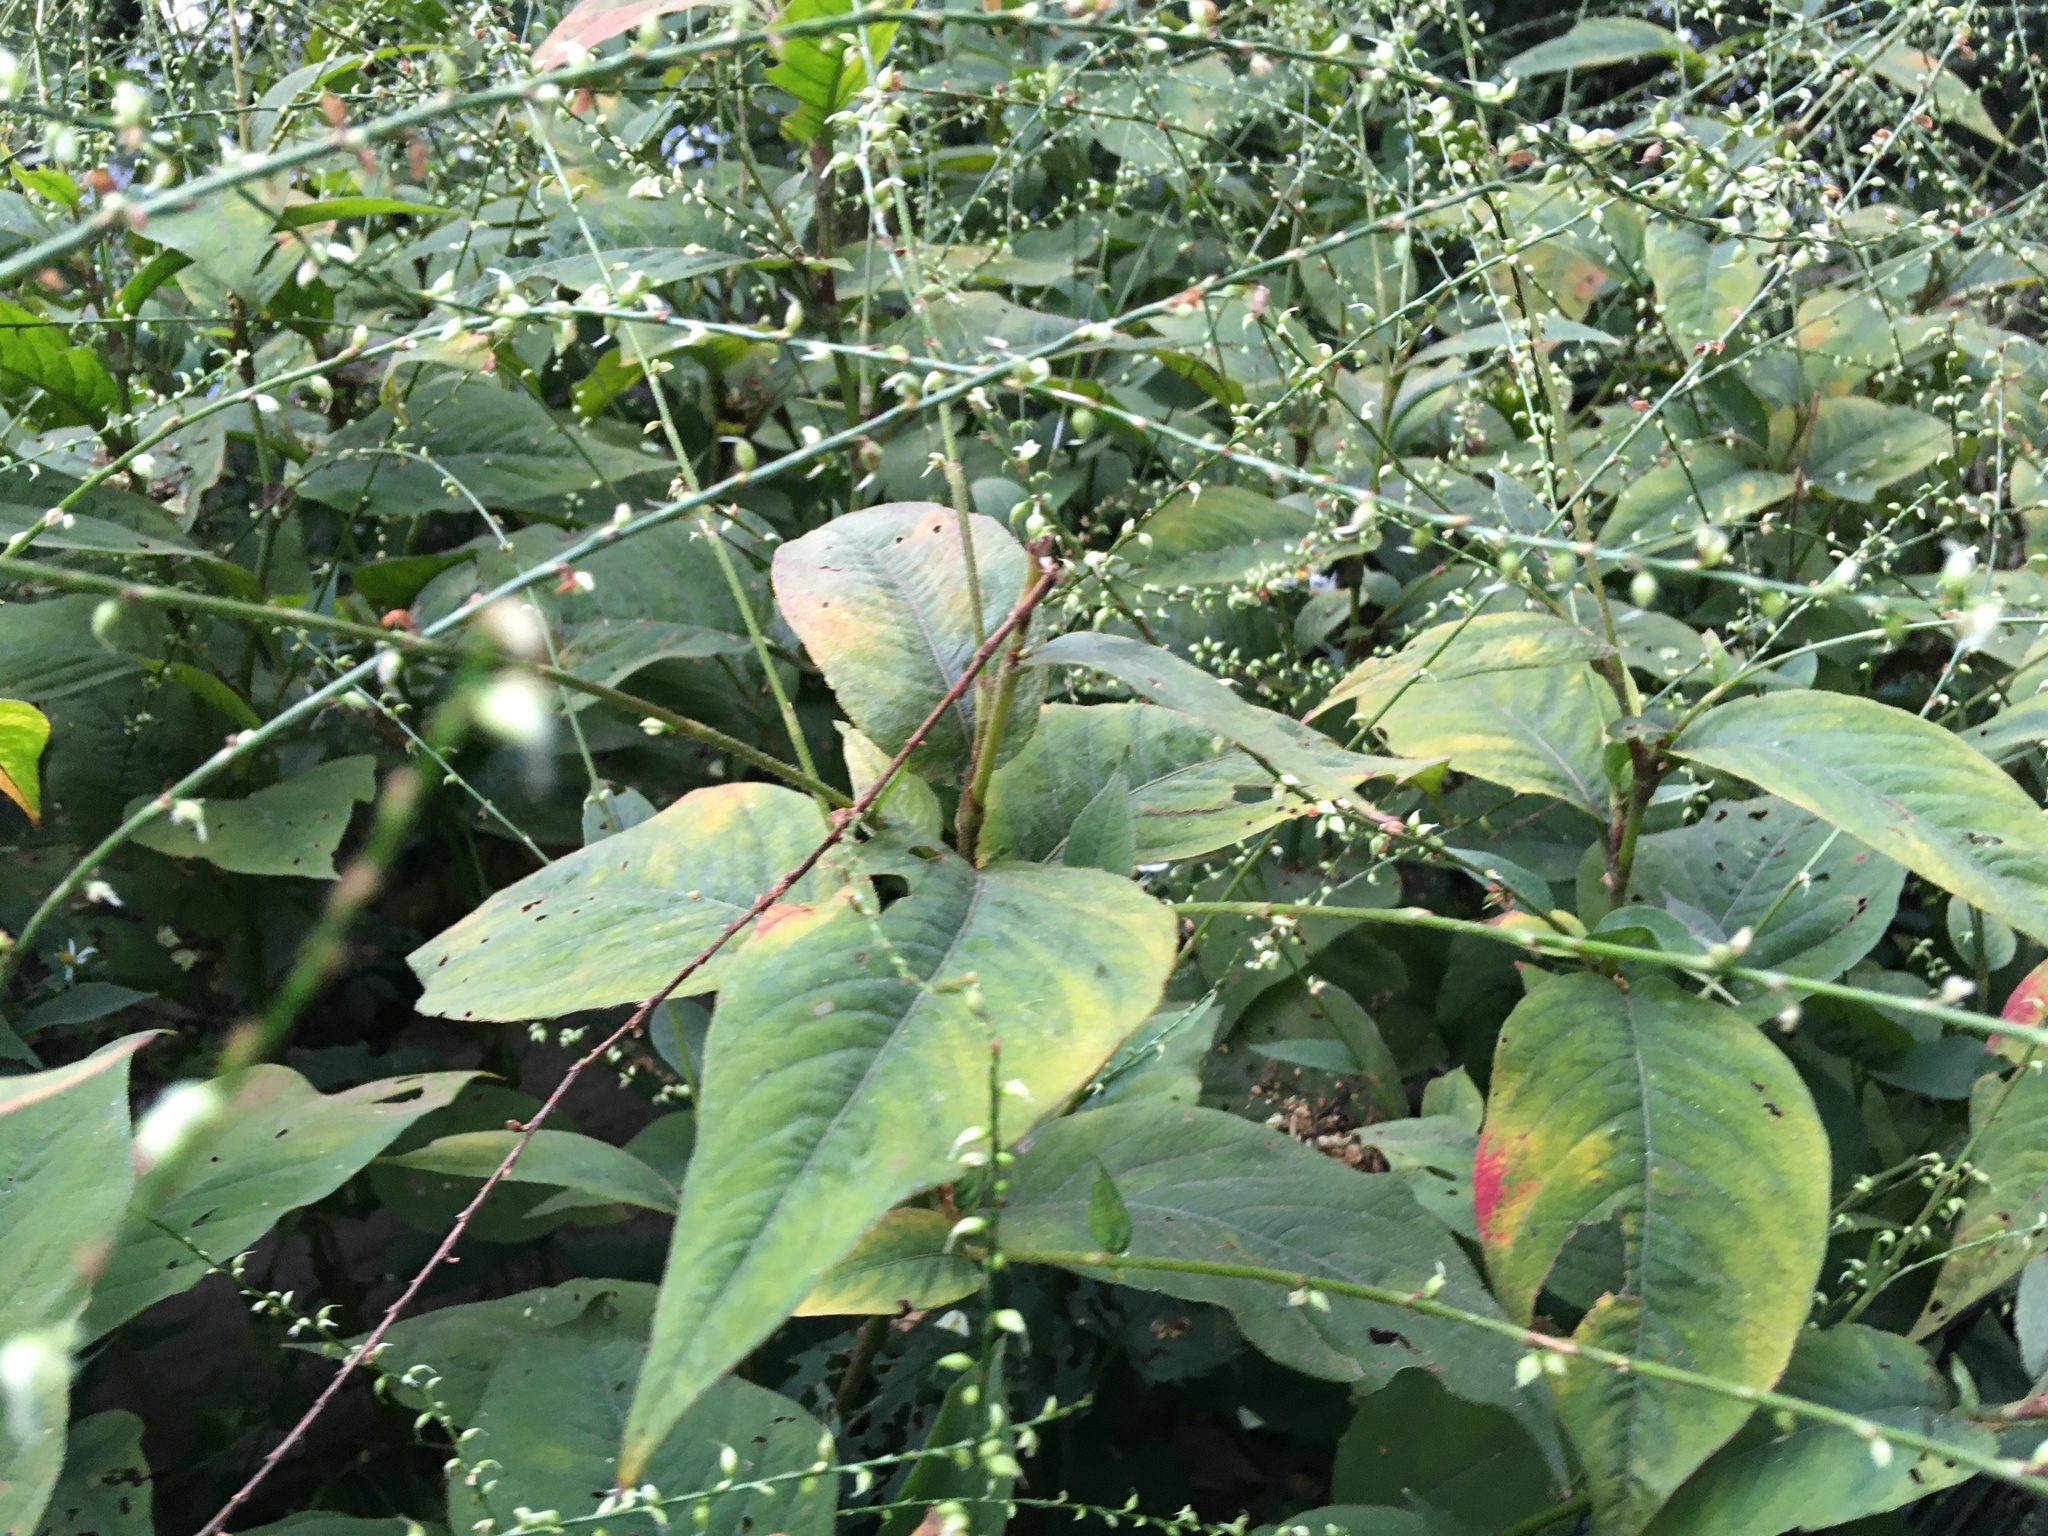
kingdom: Plantae
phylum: Tracheophyta
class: Magnoliopsida
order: Caryophyllales
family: Polygonaceae
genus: Persicaria
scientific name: Persicaria virginiana
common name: Jumpseed
